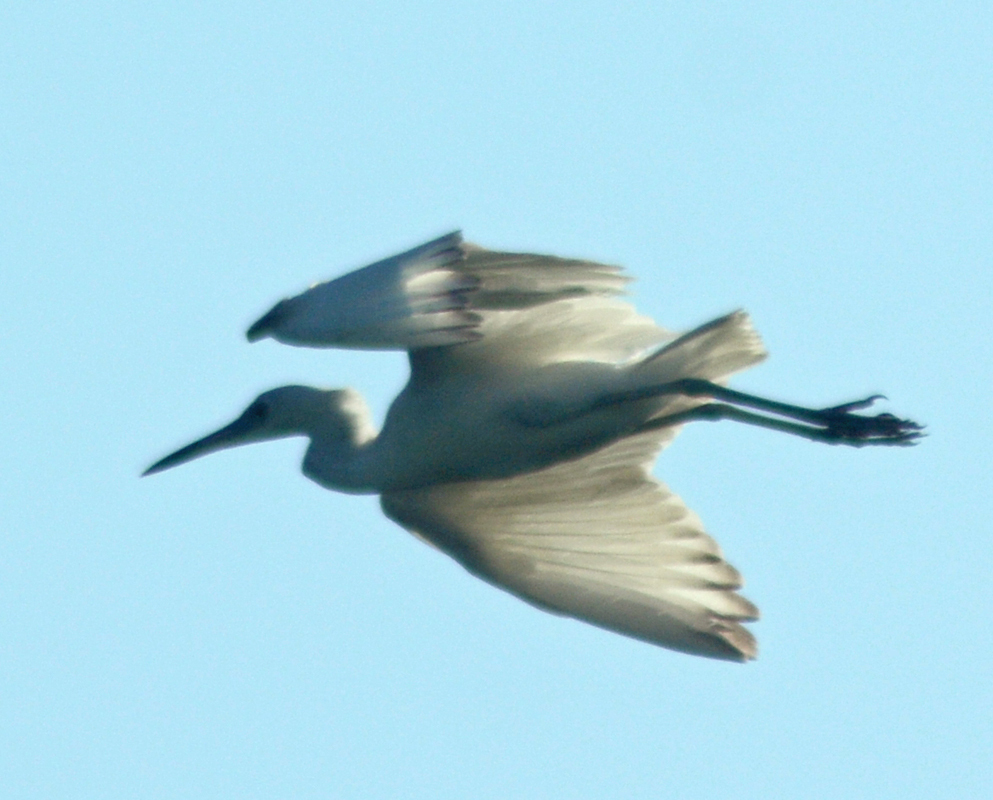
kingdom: Animalia
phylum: Chordata
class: Aves
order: Pelecaniformes
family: Ardeidae
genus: Egretta
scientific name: Egretta caerulea
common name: Little blue heron
